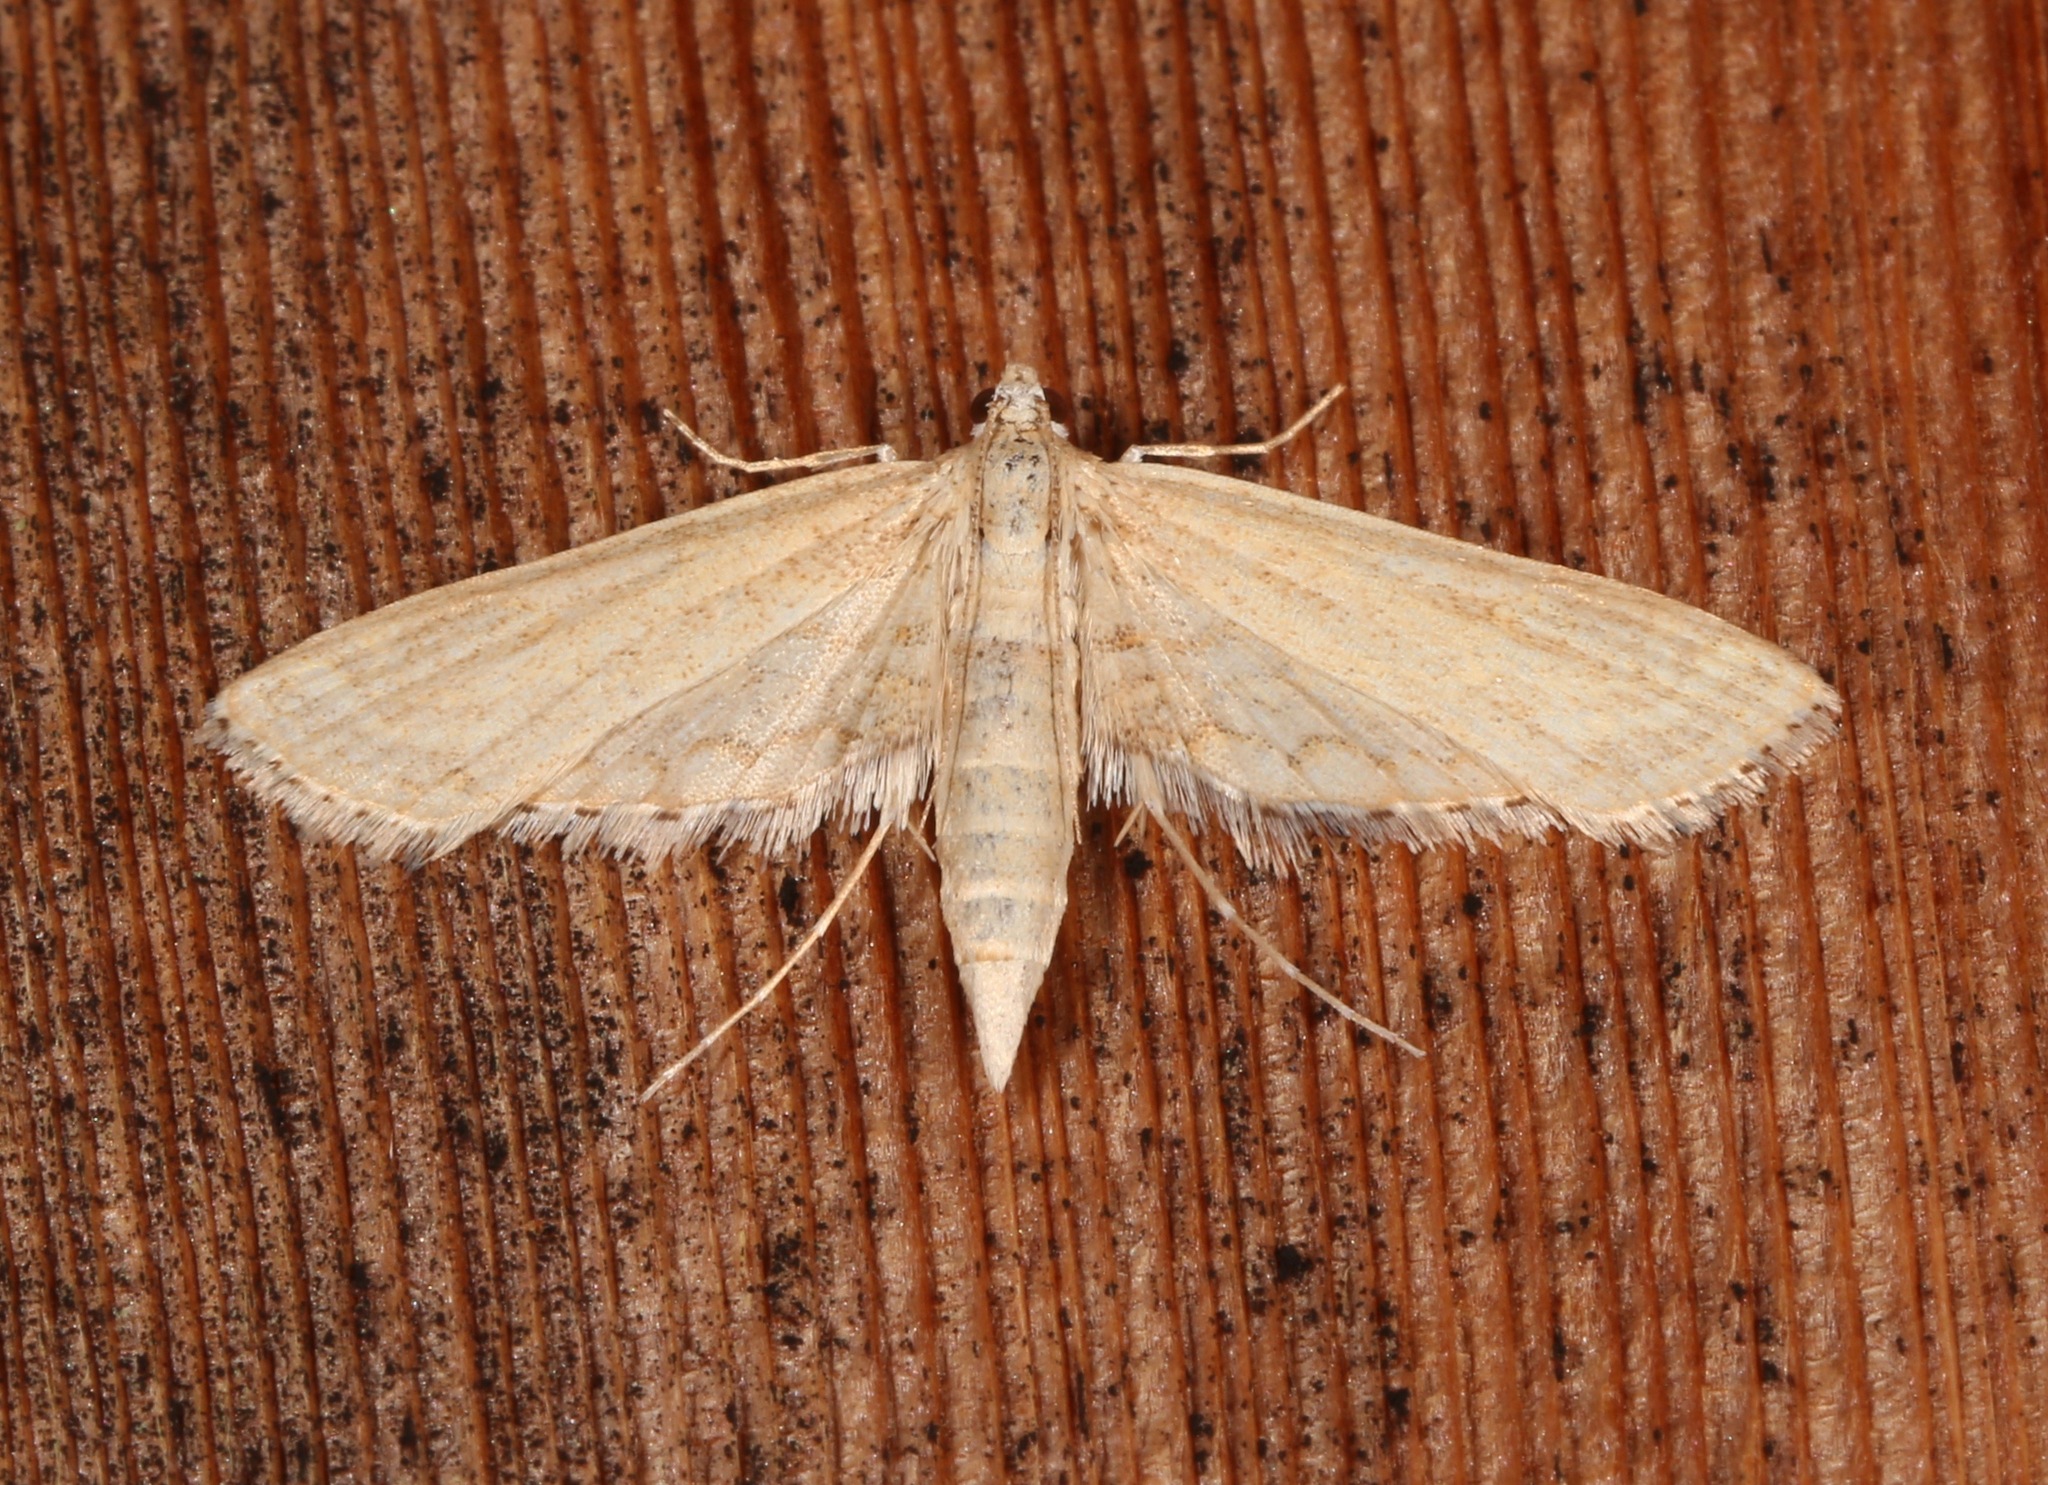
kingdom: Animalia
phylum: Arthropoda
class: Insecta
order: Lepidoptera
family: Crambidae
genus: Parapoynx
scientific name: Parapoynx allionealis
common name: Bladderwort casemaker
